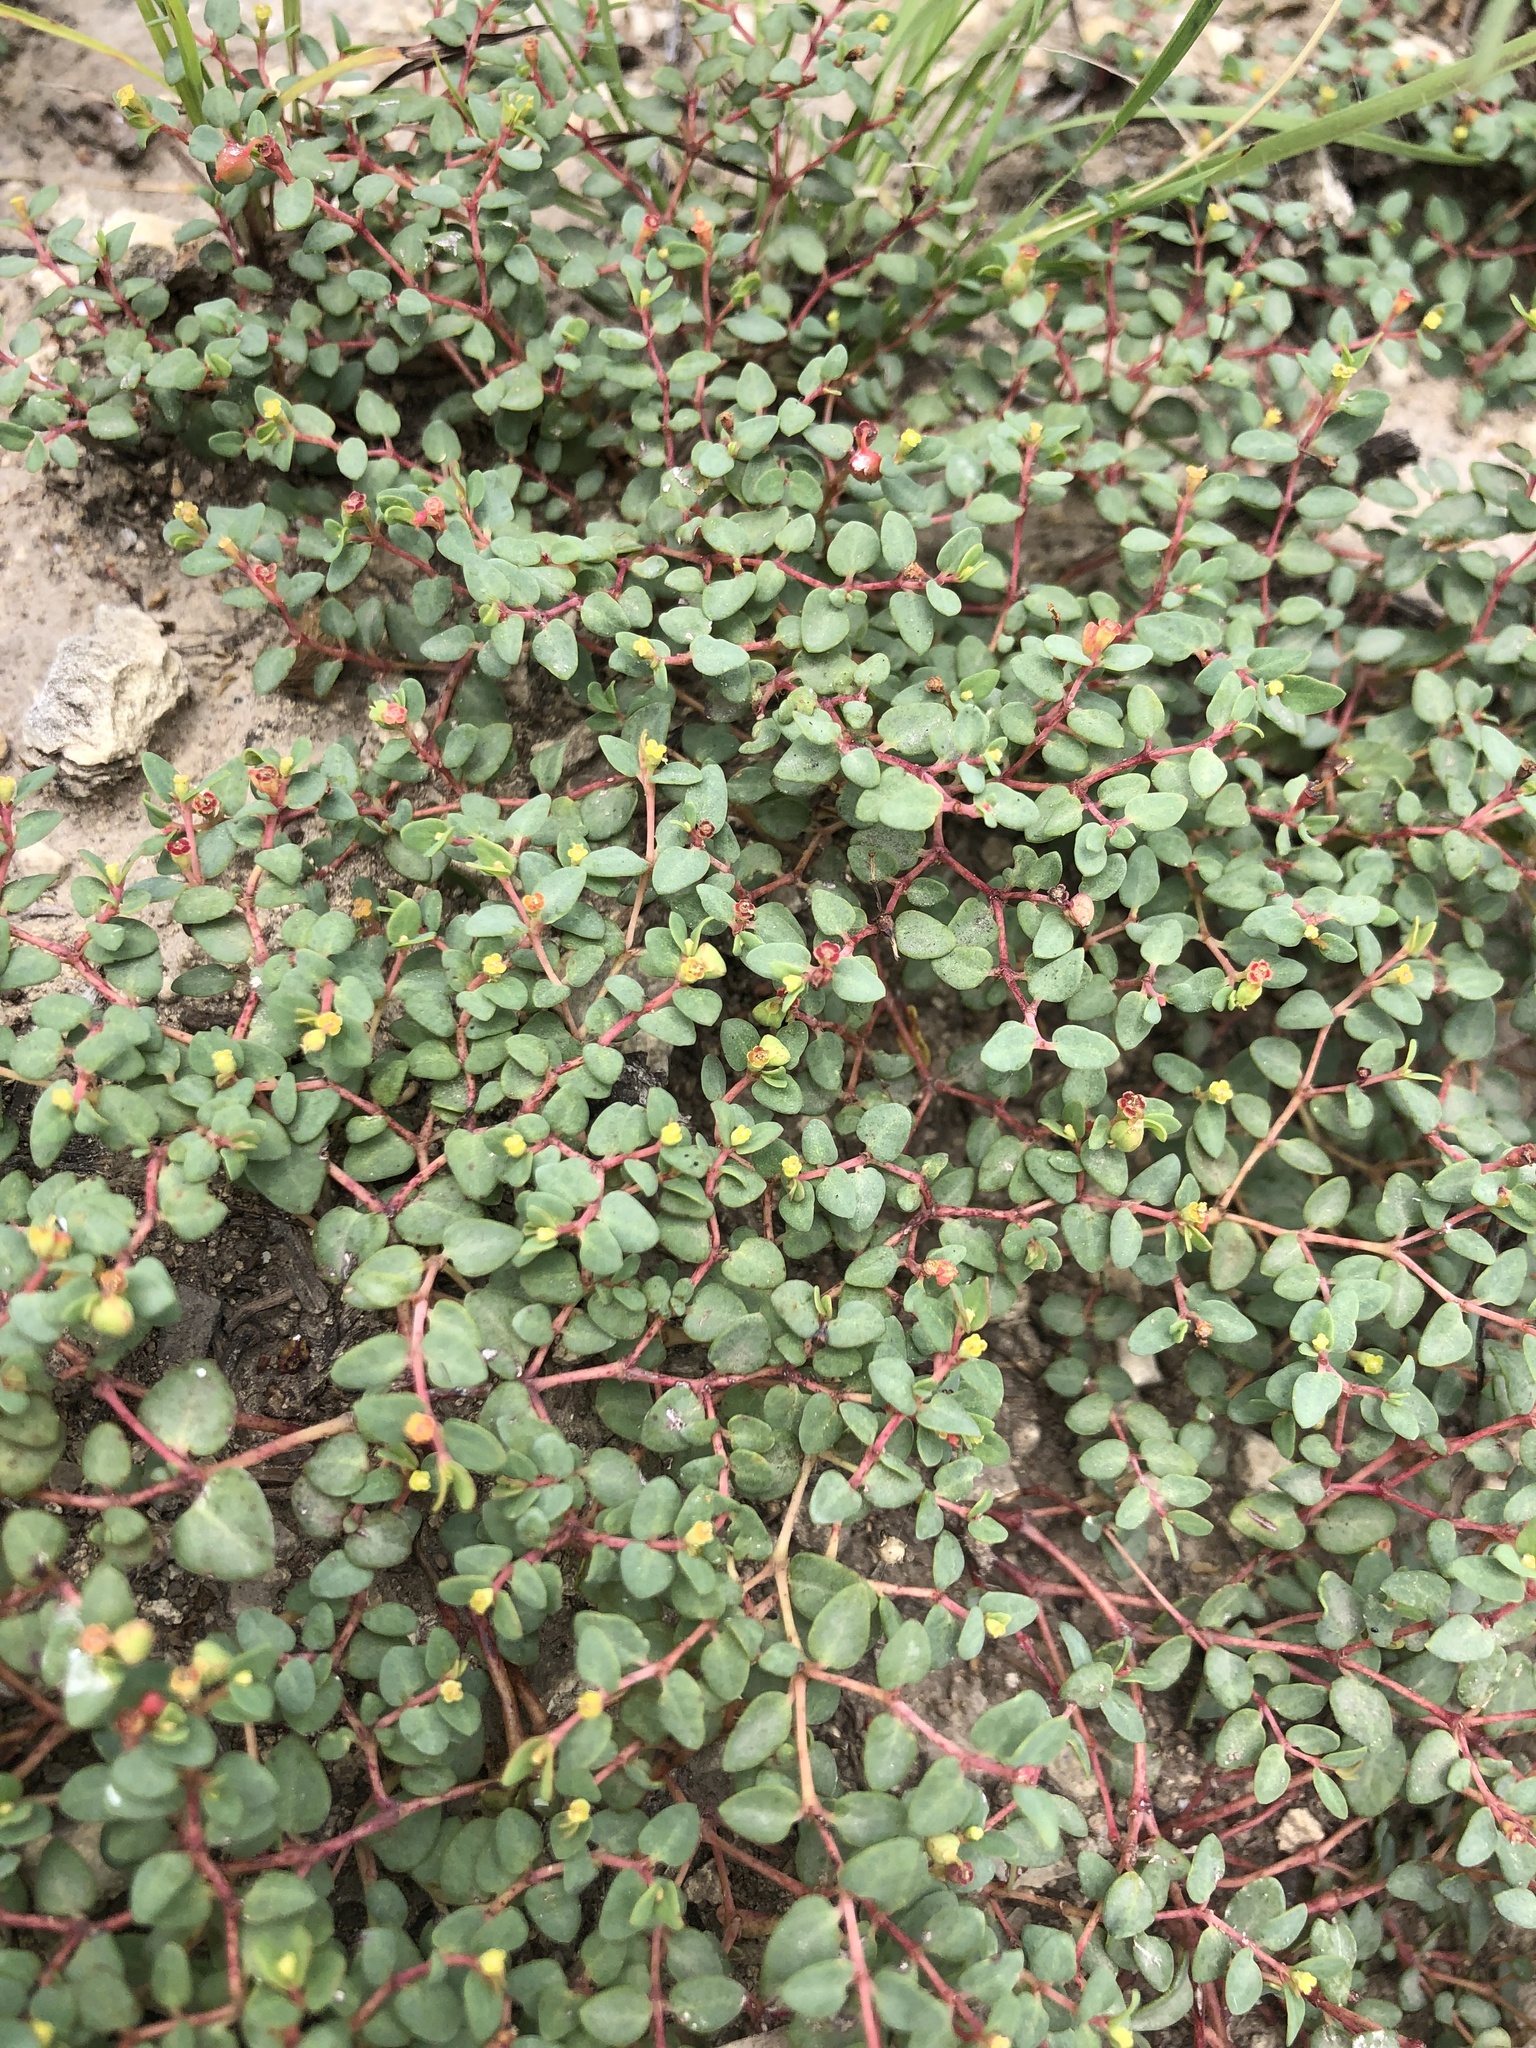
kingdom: Plantae
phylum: Tracheophyta
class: Magnoliopsida
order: Malpighiales
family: Euphorbiaceae
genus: Euphorbia
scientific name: Euphorbia fendleri
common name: Fendler's euphorbia
